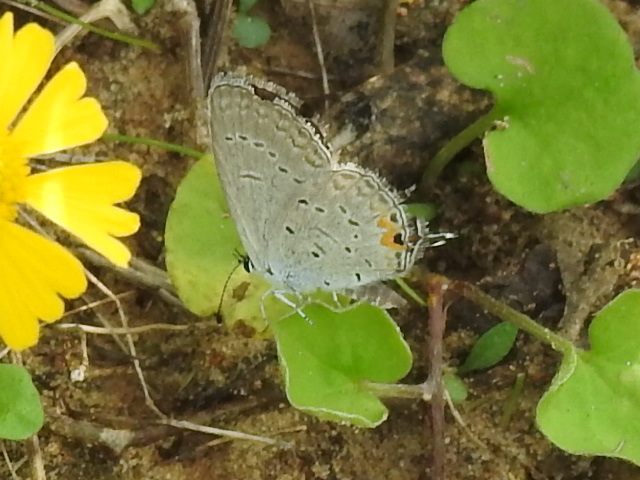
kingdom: Animalia
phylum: Arthropoda
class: Insecta
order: Lepidoptera
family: Lycaenidae
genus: Elkalyce
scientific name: Elkalyce comyntas
